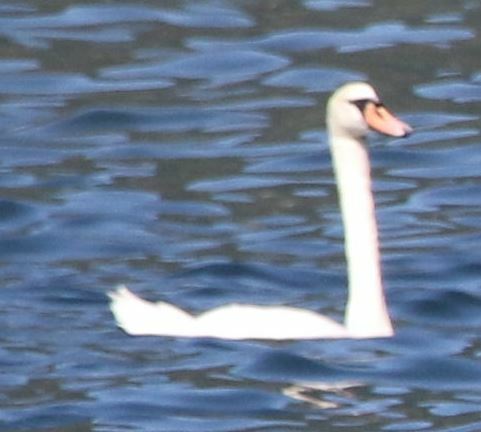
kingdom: Animalia
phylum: Chordata
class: Aves
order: Anseriformes
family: Anatidae
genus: Cygnus
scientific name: Cygnus olor
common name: Mute swan
